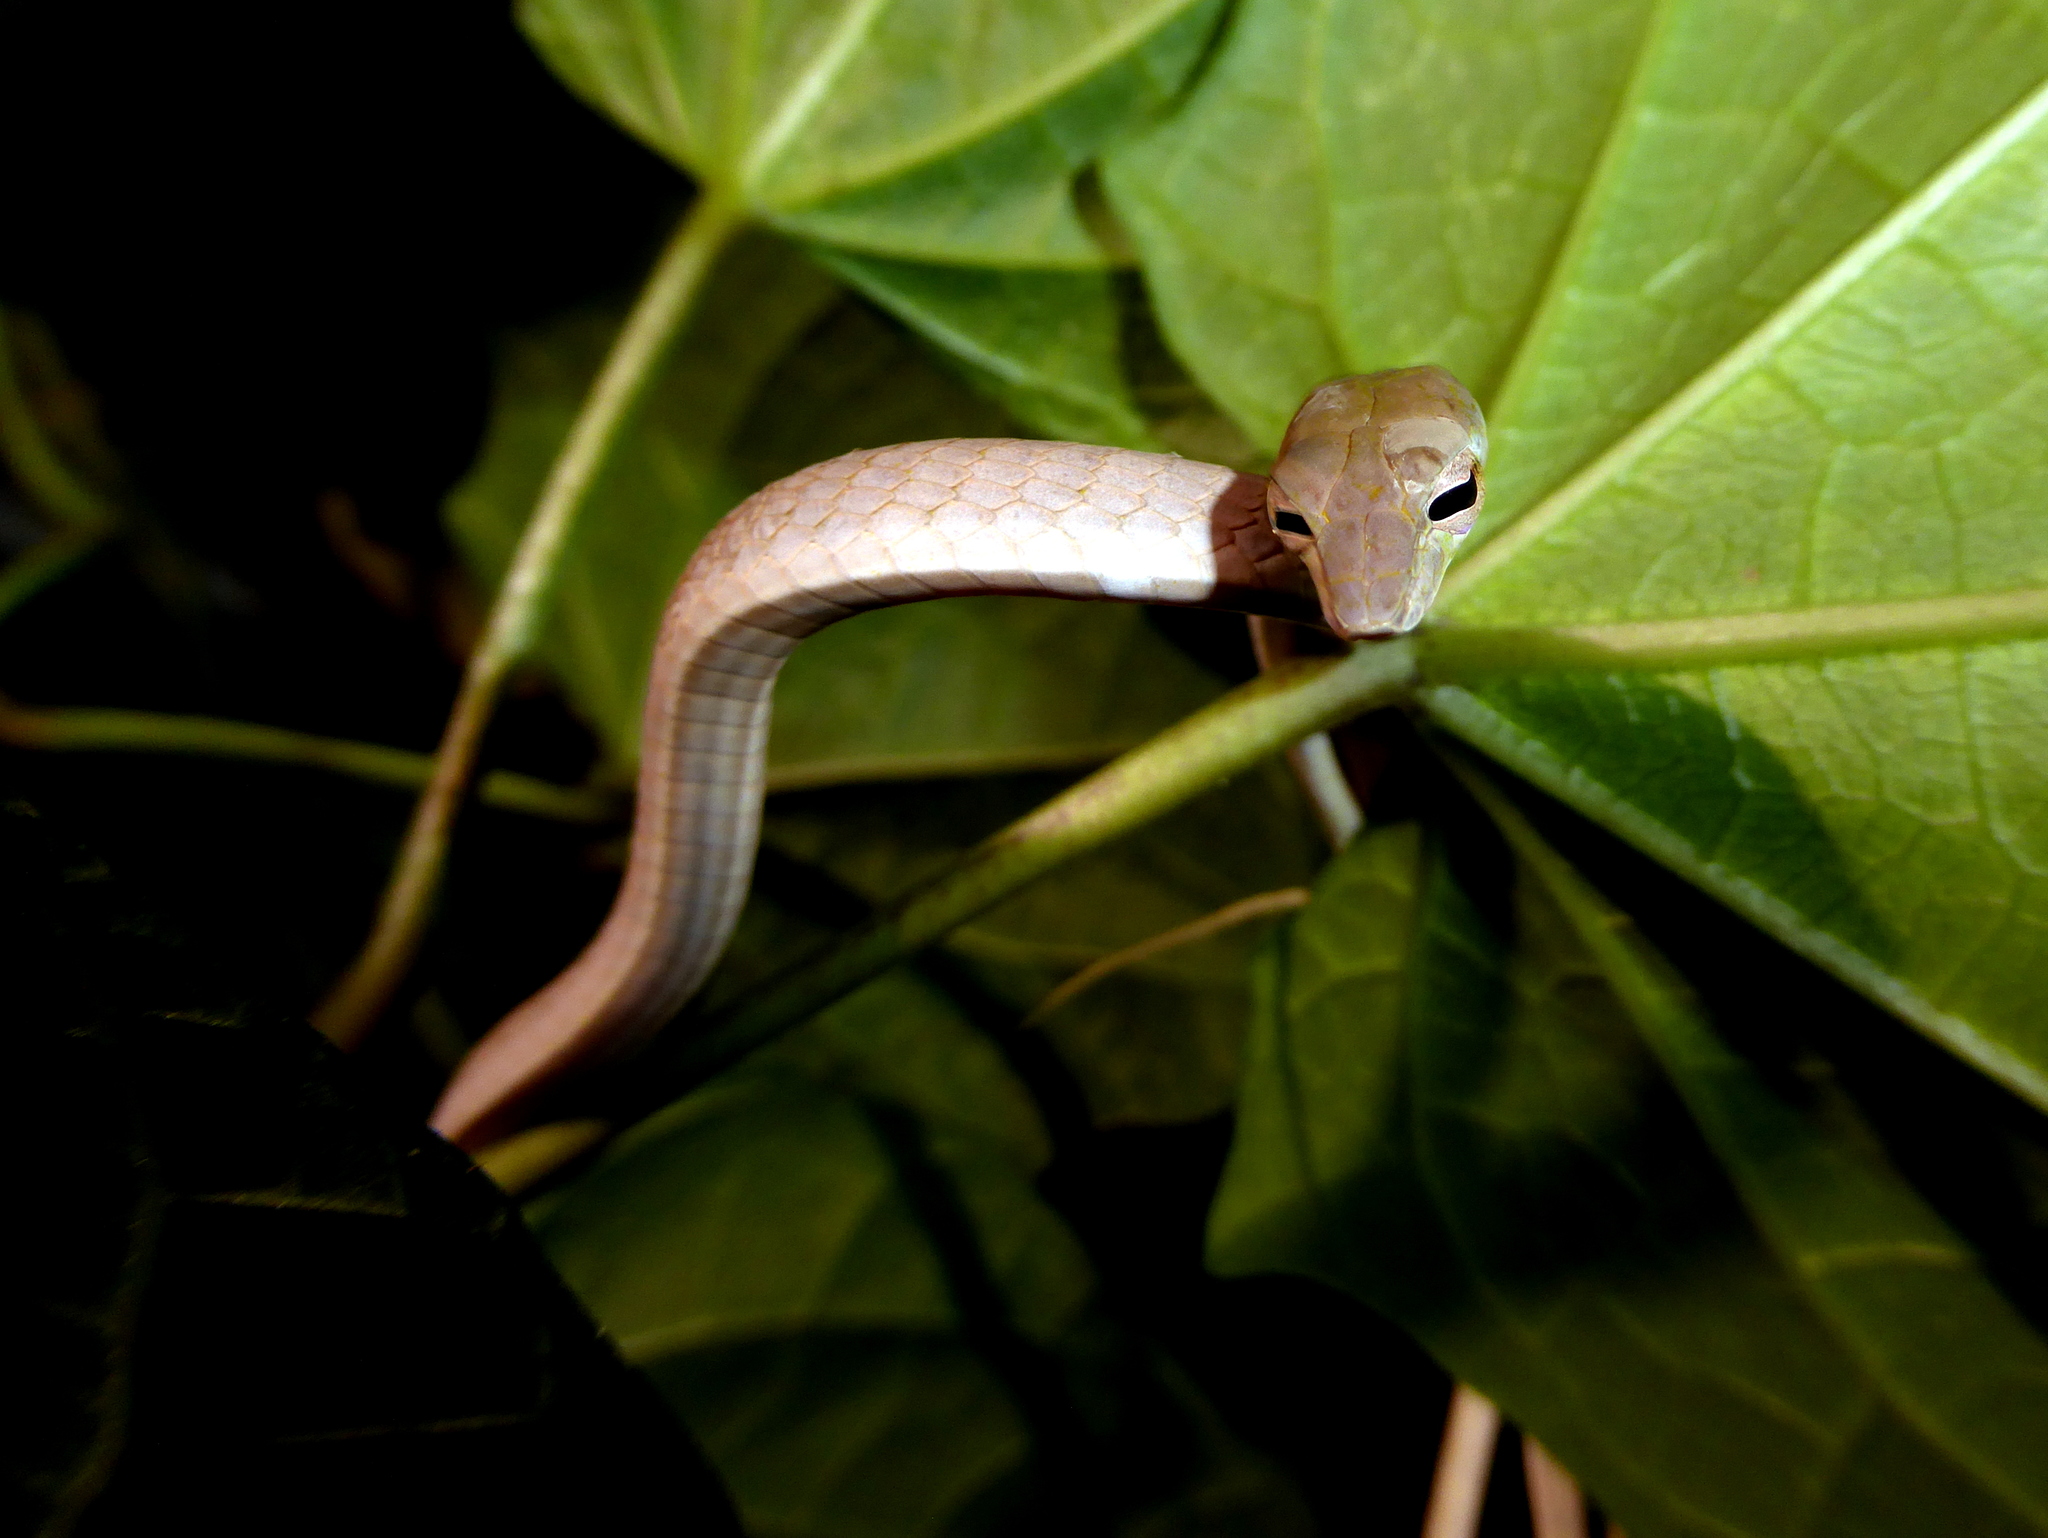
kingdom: Animalia
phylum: Chordata
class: Squamata
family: Colubridae
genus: Ahaetulla
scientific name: Ahaetulla prasina
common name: Oriental whip snake
